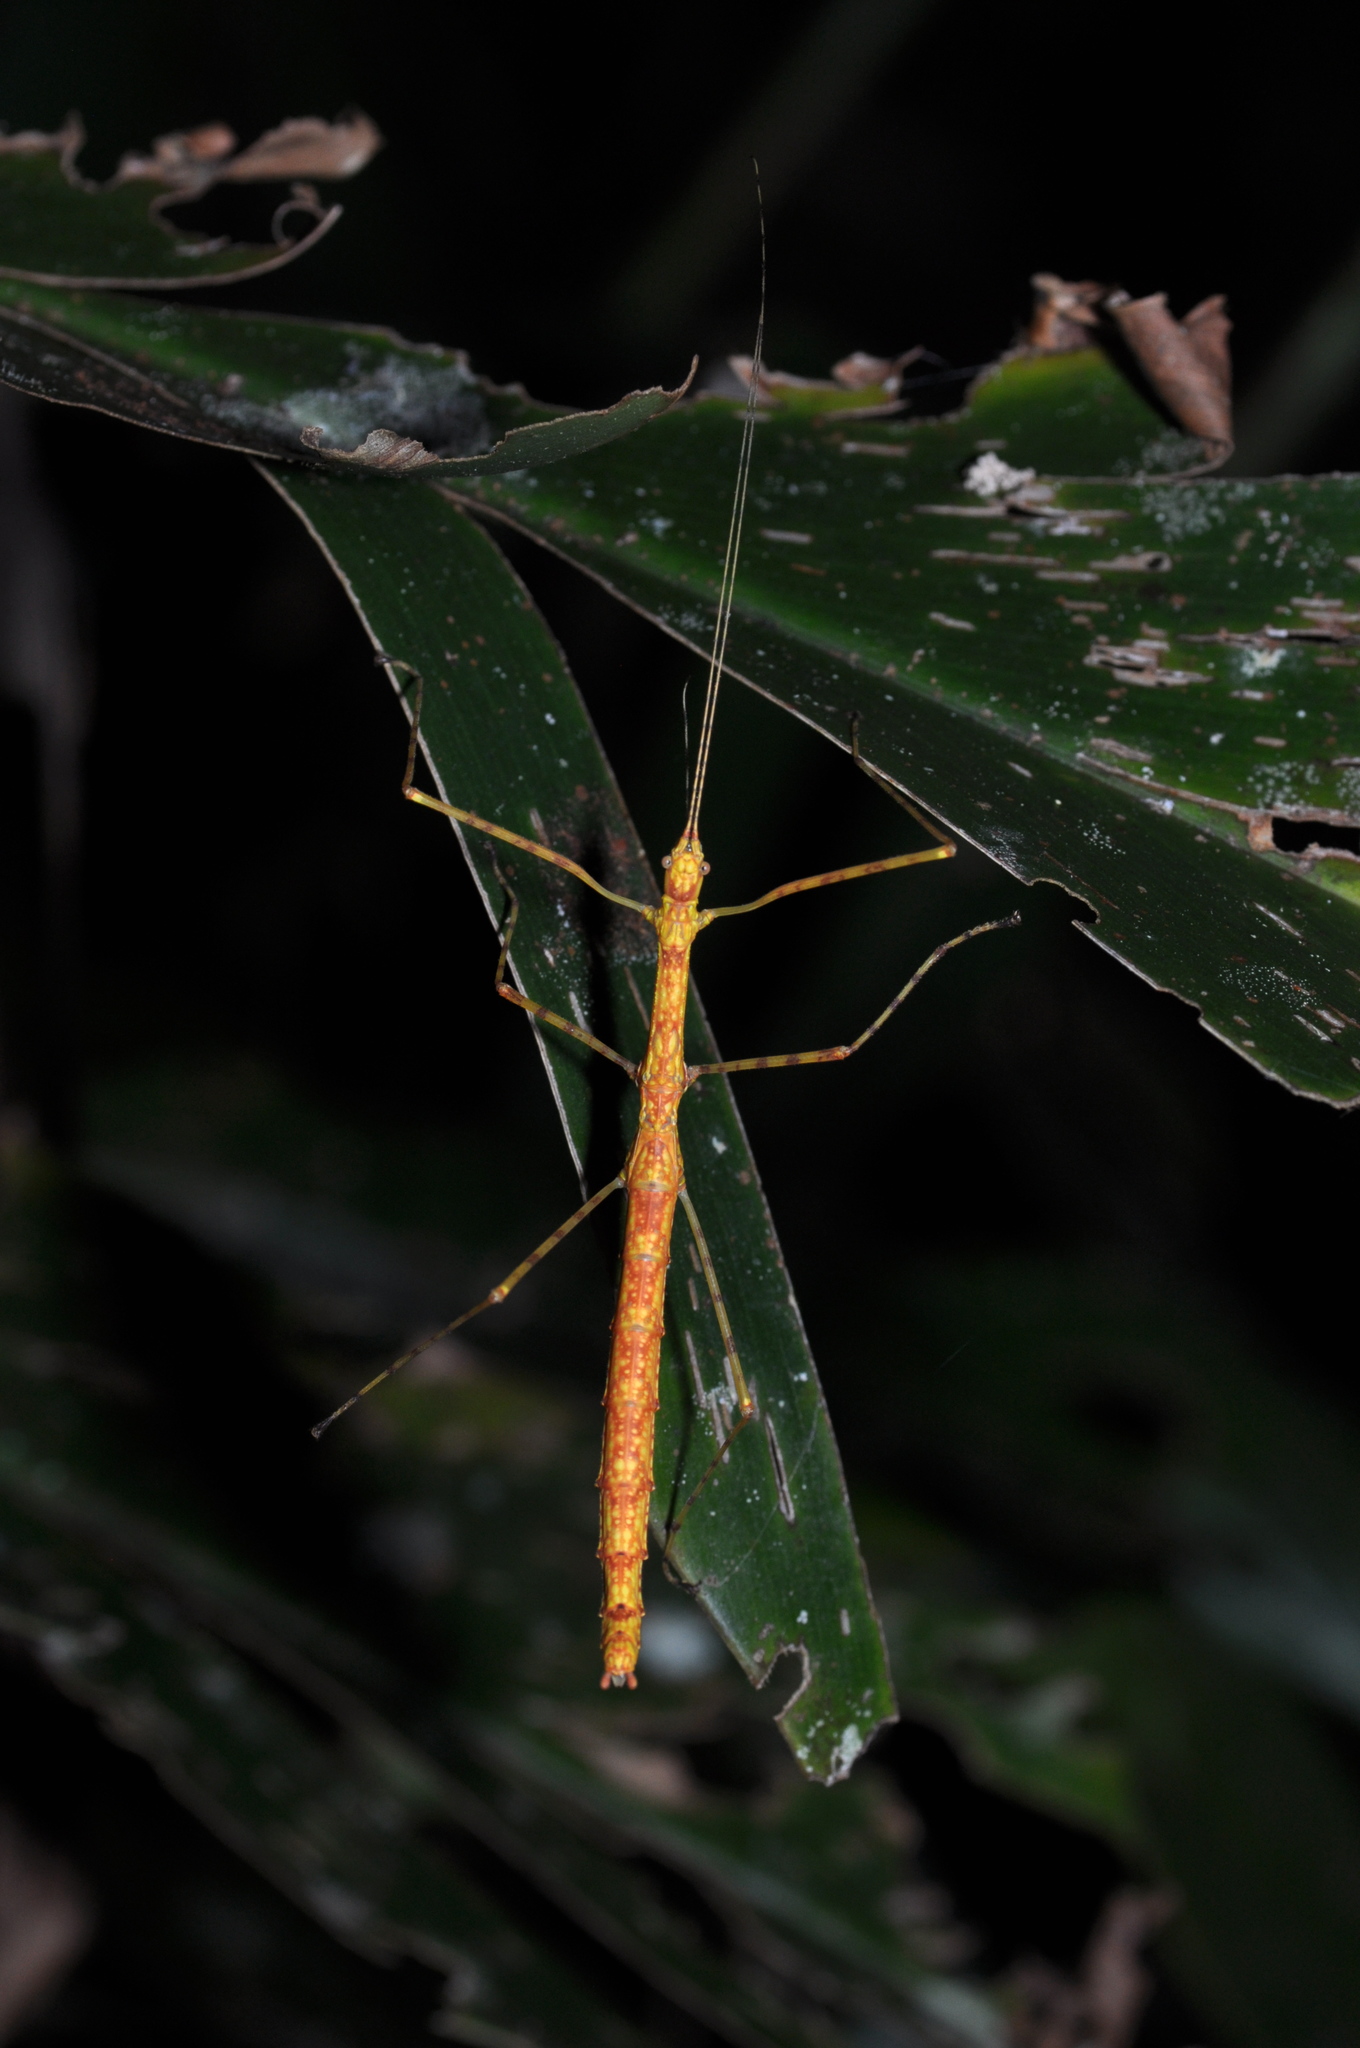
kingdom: Animalia
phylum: Arthropoda
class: Insecta
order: Phasmida
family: Lonchodidae
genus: Necroscia
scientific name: Necroscia laterala
